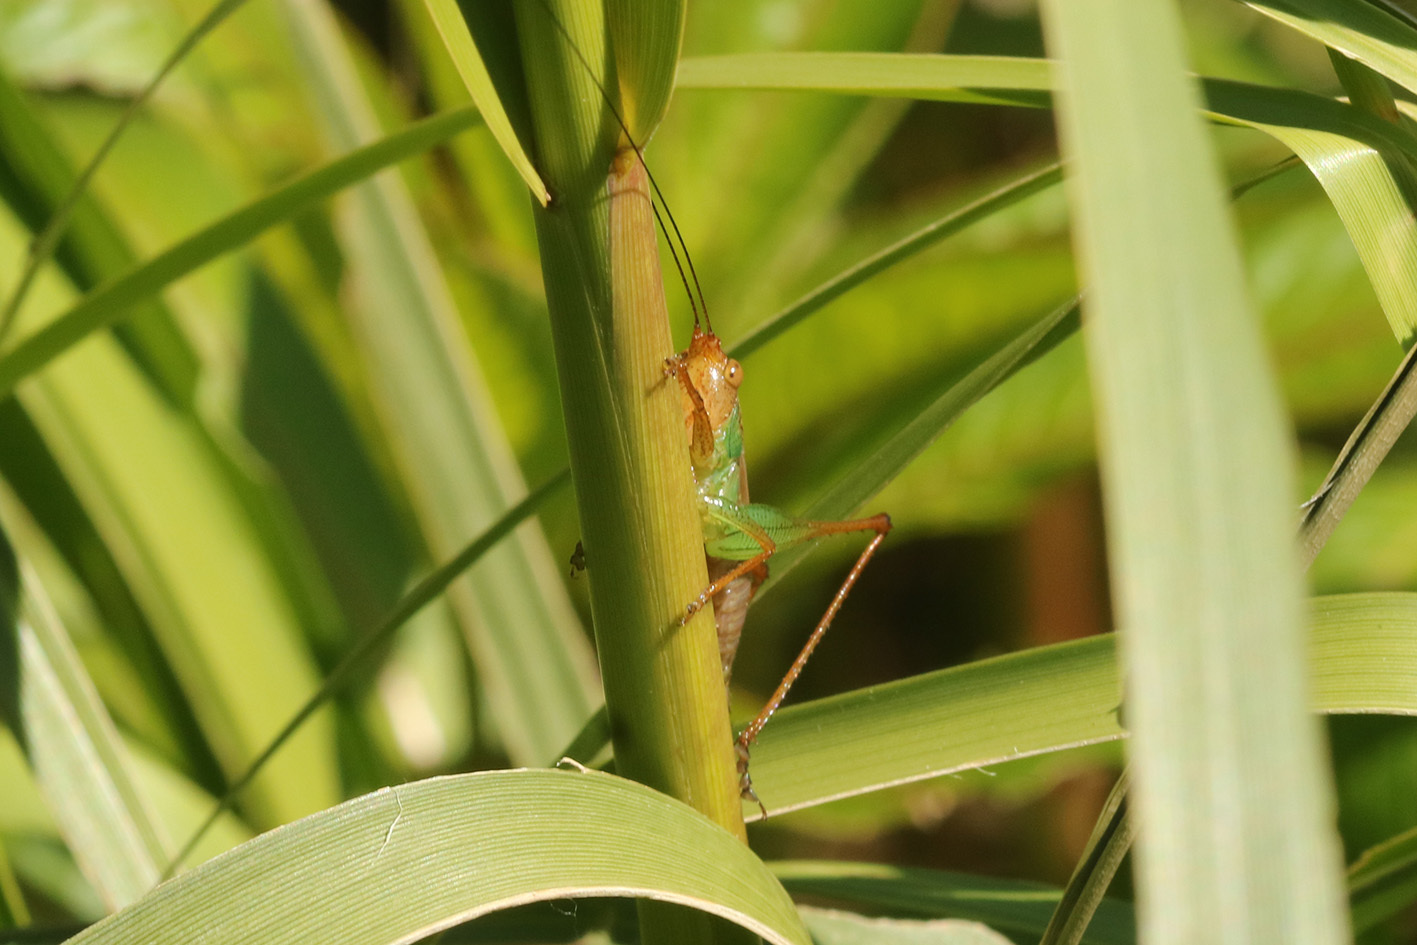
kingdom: Animalia
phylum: Arthropoda
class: Insecta
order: Orthoptera
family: Tettigoniidae
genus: Conocephalus
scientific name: Conocephalus cinnamonifrons
